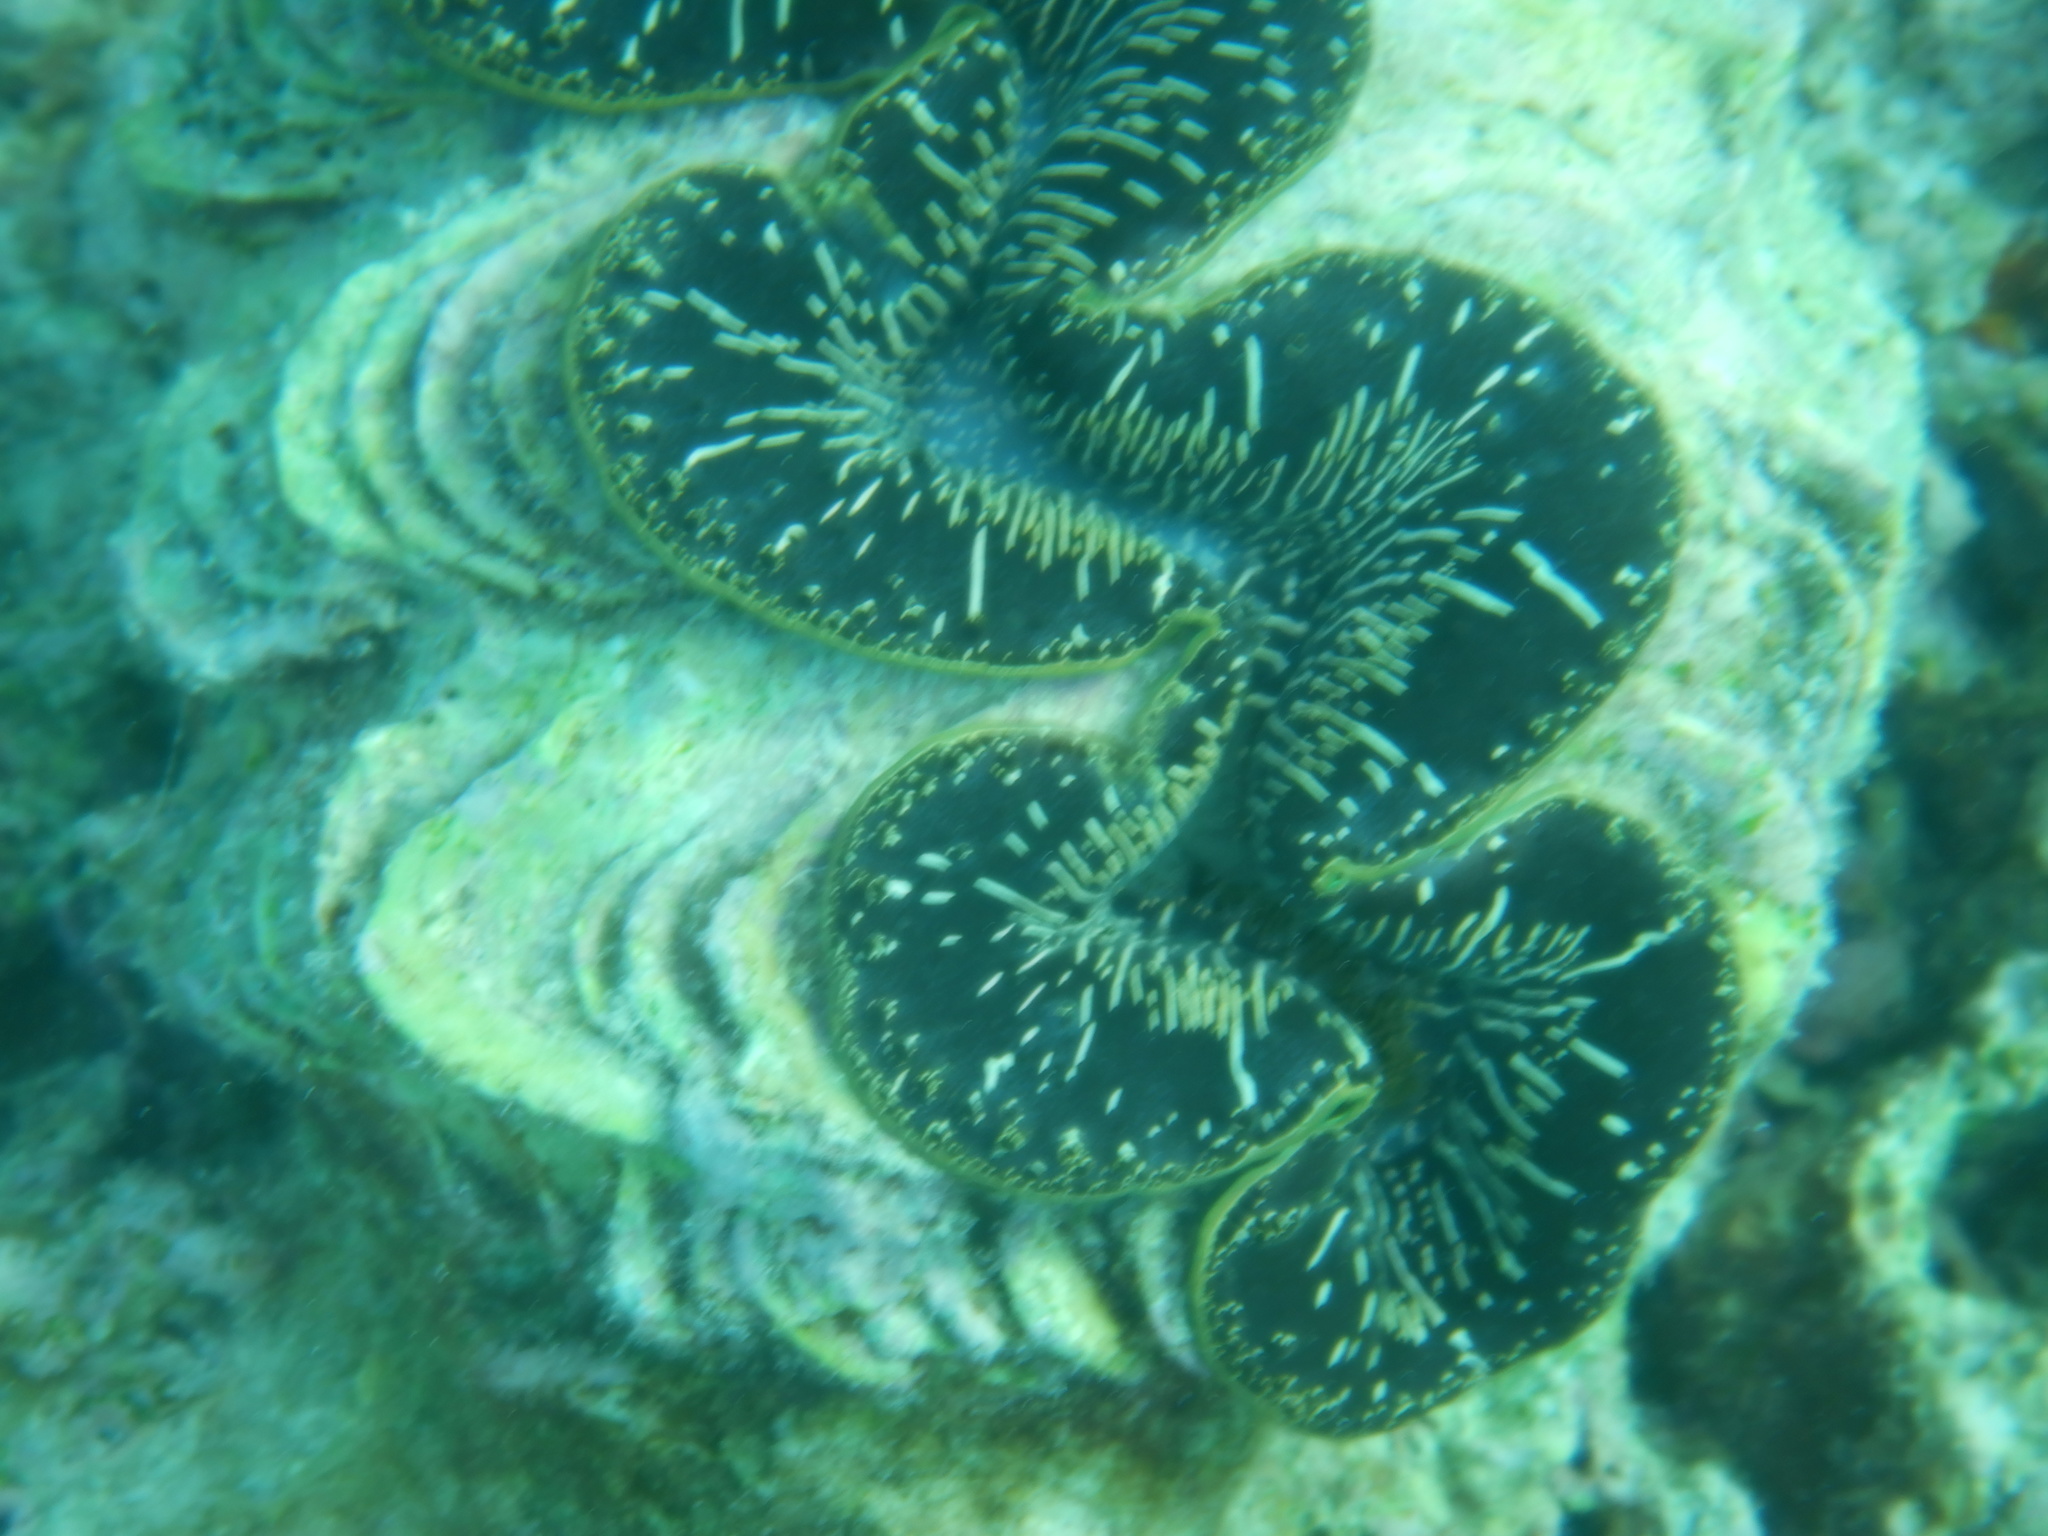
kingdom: Animalia
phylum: Mollusca
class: Bivalvia
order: Cardiida
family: Cardiidae
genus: Tridacna
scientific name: Tridacna maxima
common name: Small giant clam
